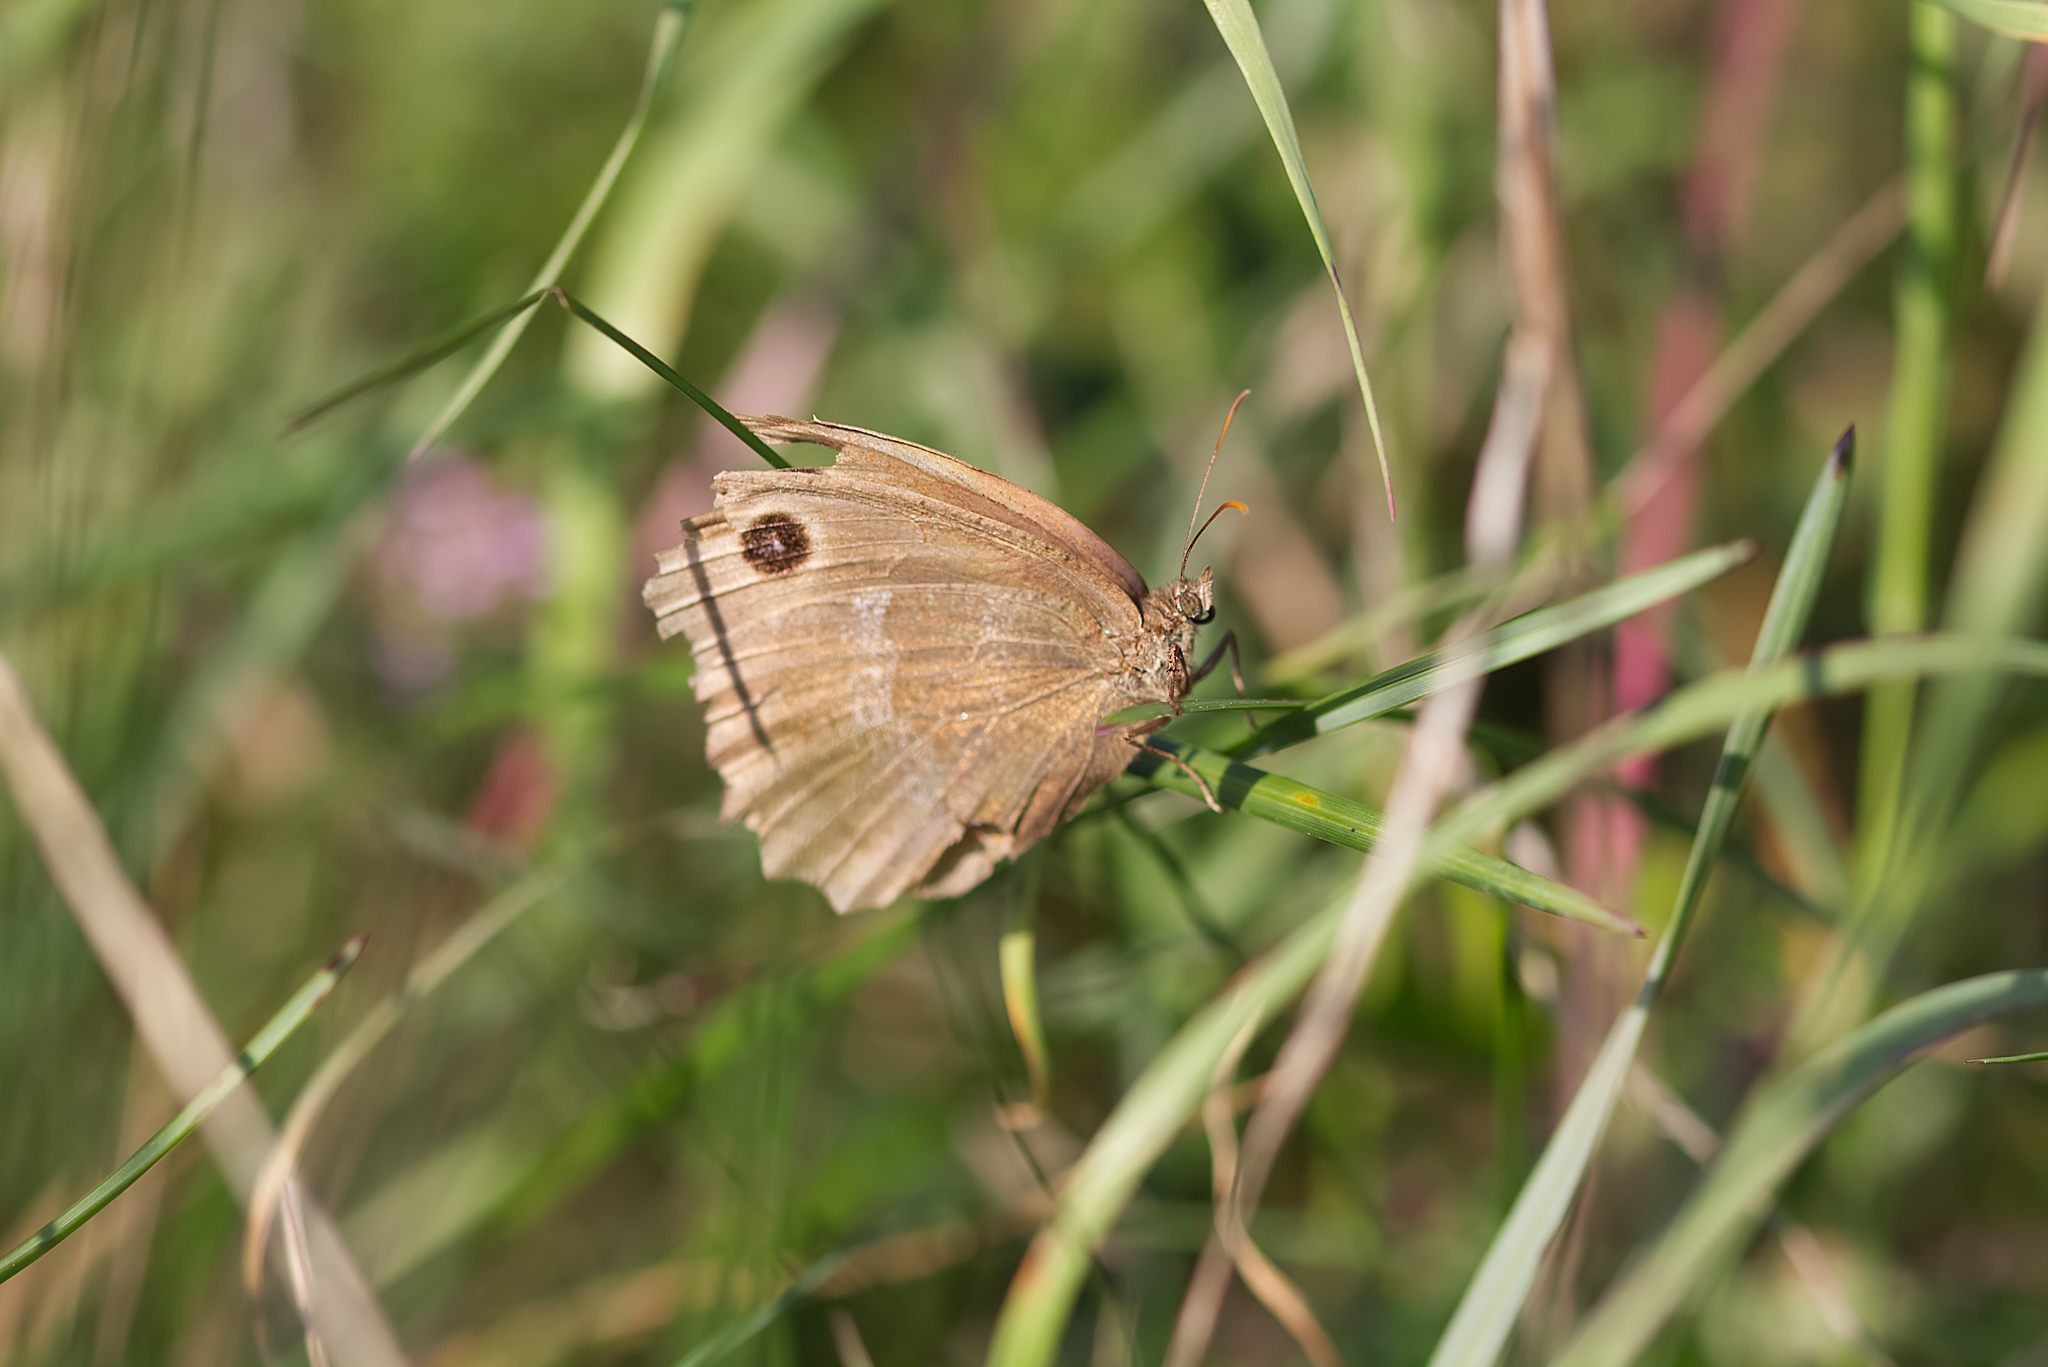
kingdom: Animalia
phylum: Arthropoda
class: Insecta
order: Lepidoptera
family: Nymphalidae
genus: Minois
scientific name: Minois dryas
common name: Dryad
